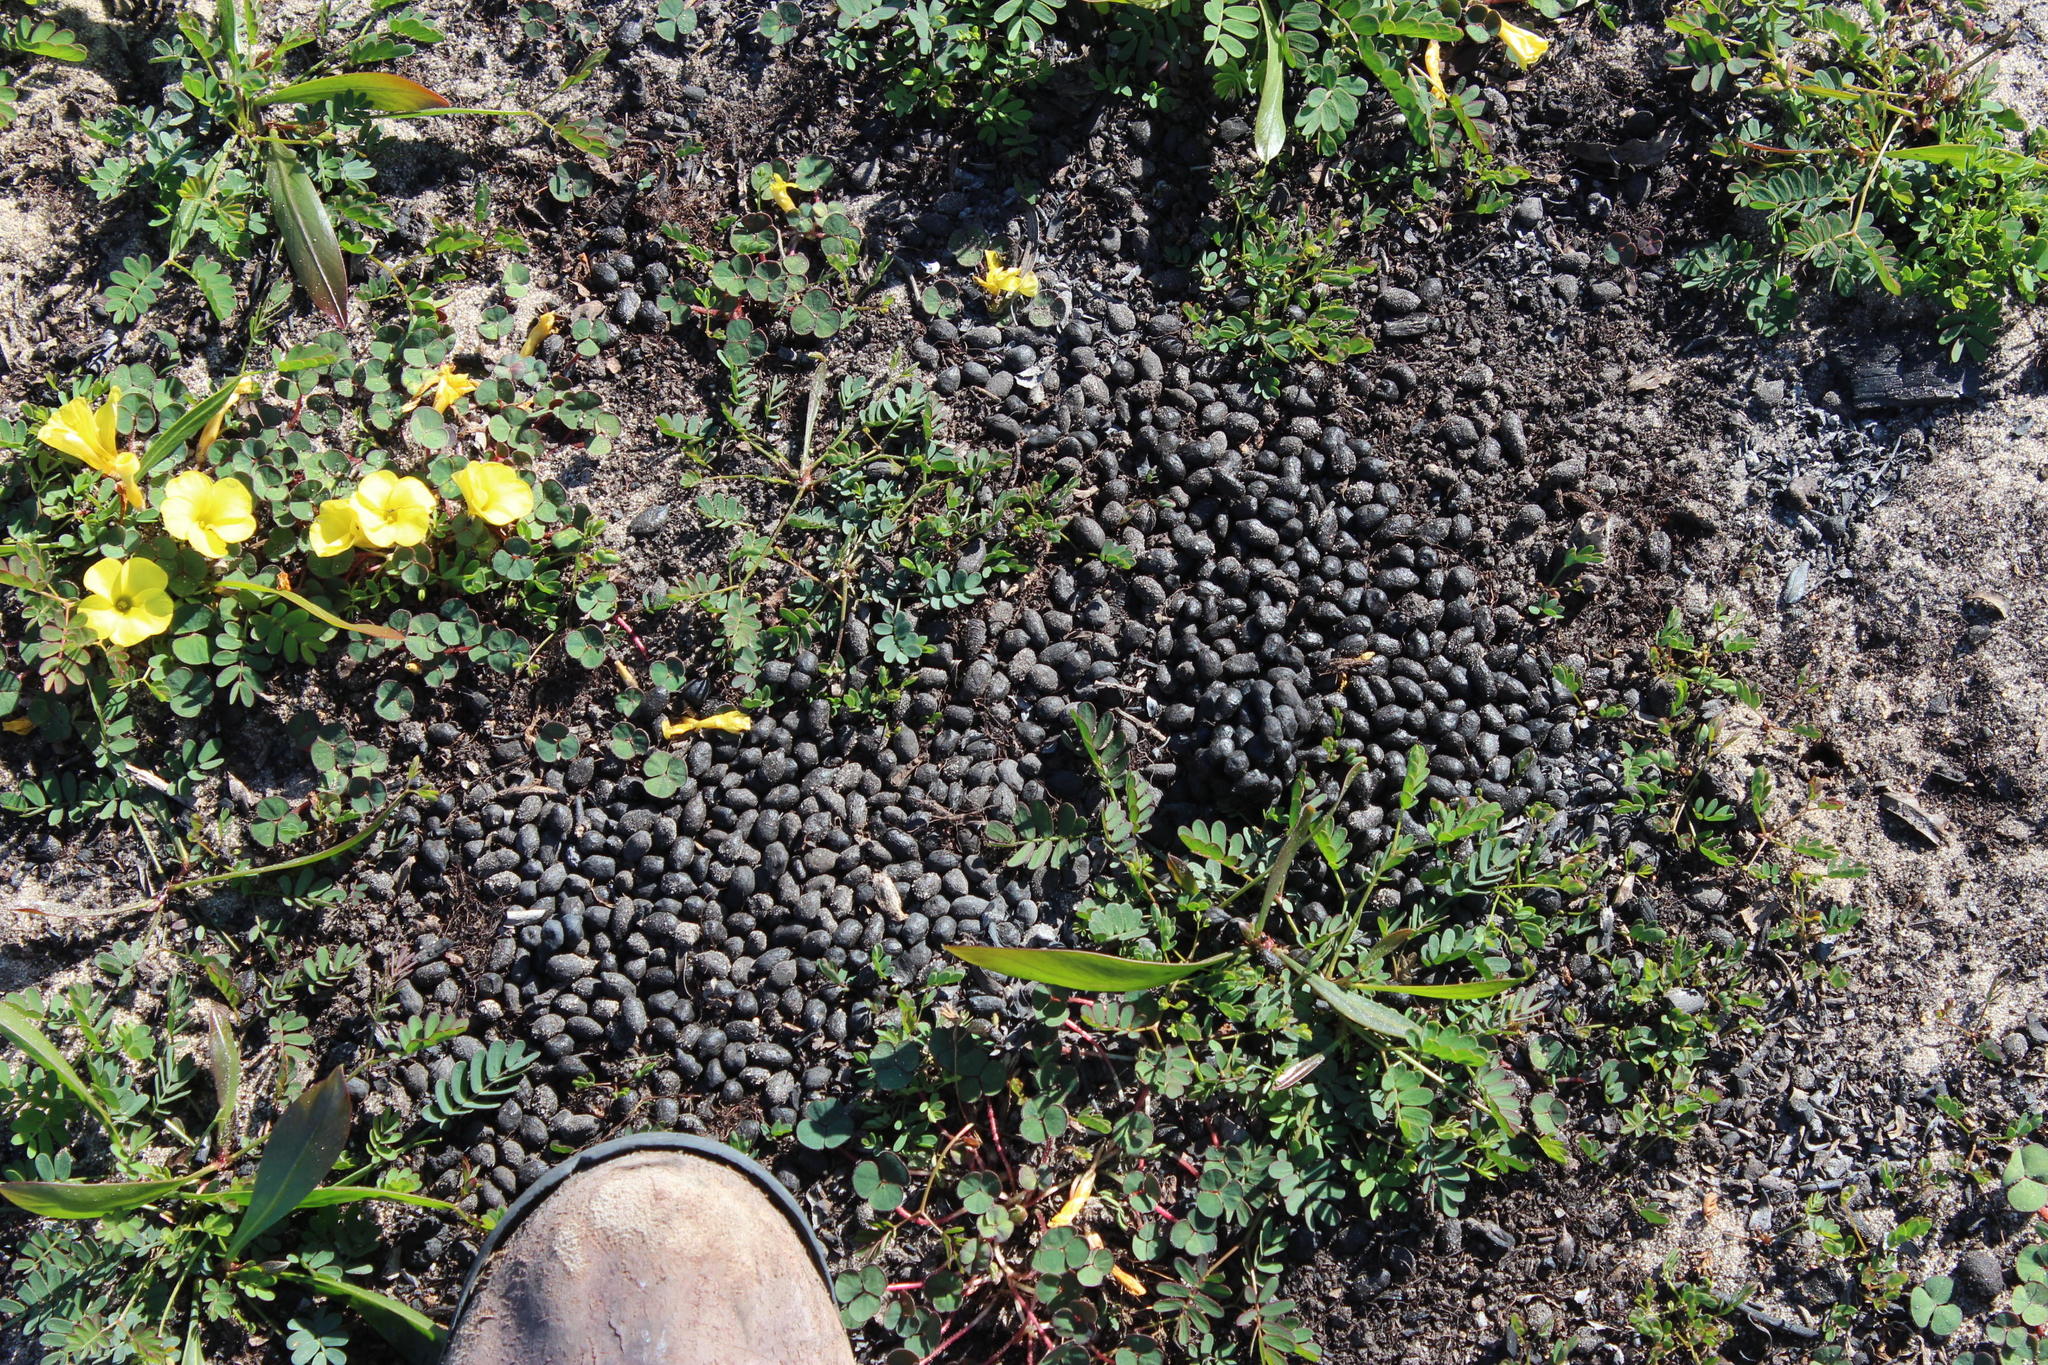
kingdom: Animalia
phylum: Chordata
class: Mammalia
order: Artiodactyla
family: Bovidae
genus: Sylvicapra
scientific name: Sylvicapra grimmia
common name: Bush duiker
